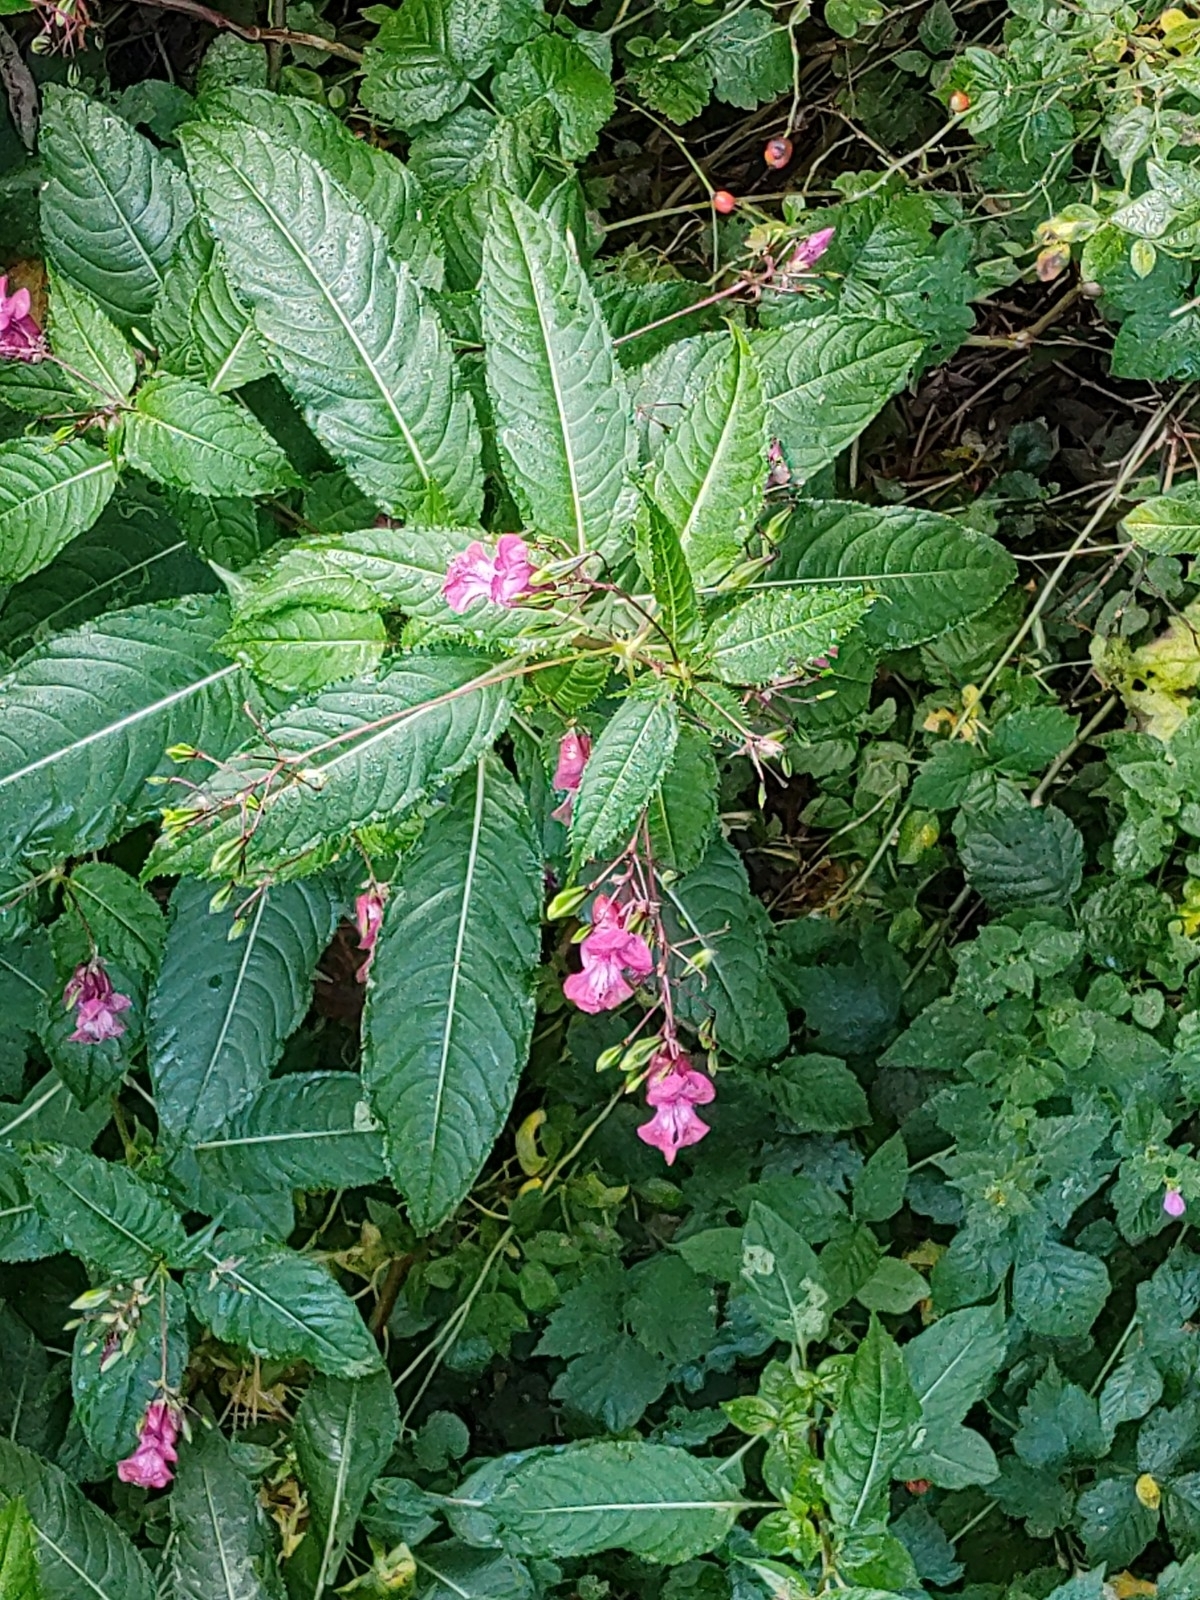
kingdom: Plantae
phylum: Tracheophyta
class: Magnoliopsida
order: Ericales
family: Balsaminaceae
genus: Impatiens
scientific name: Impatiens glandulifera
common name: Himalayan balsam
